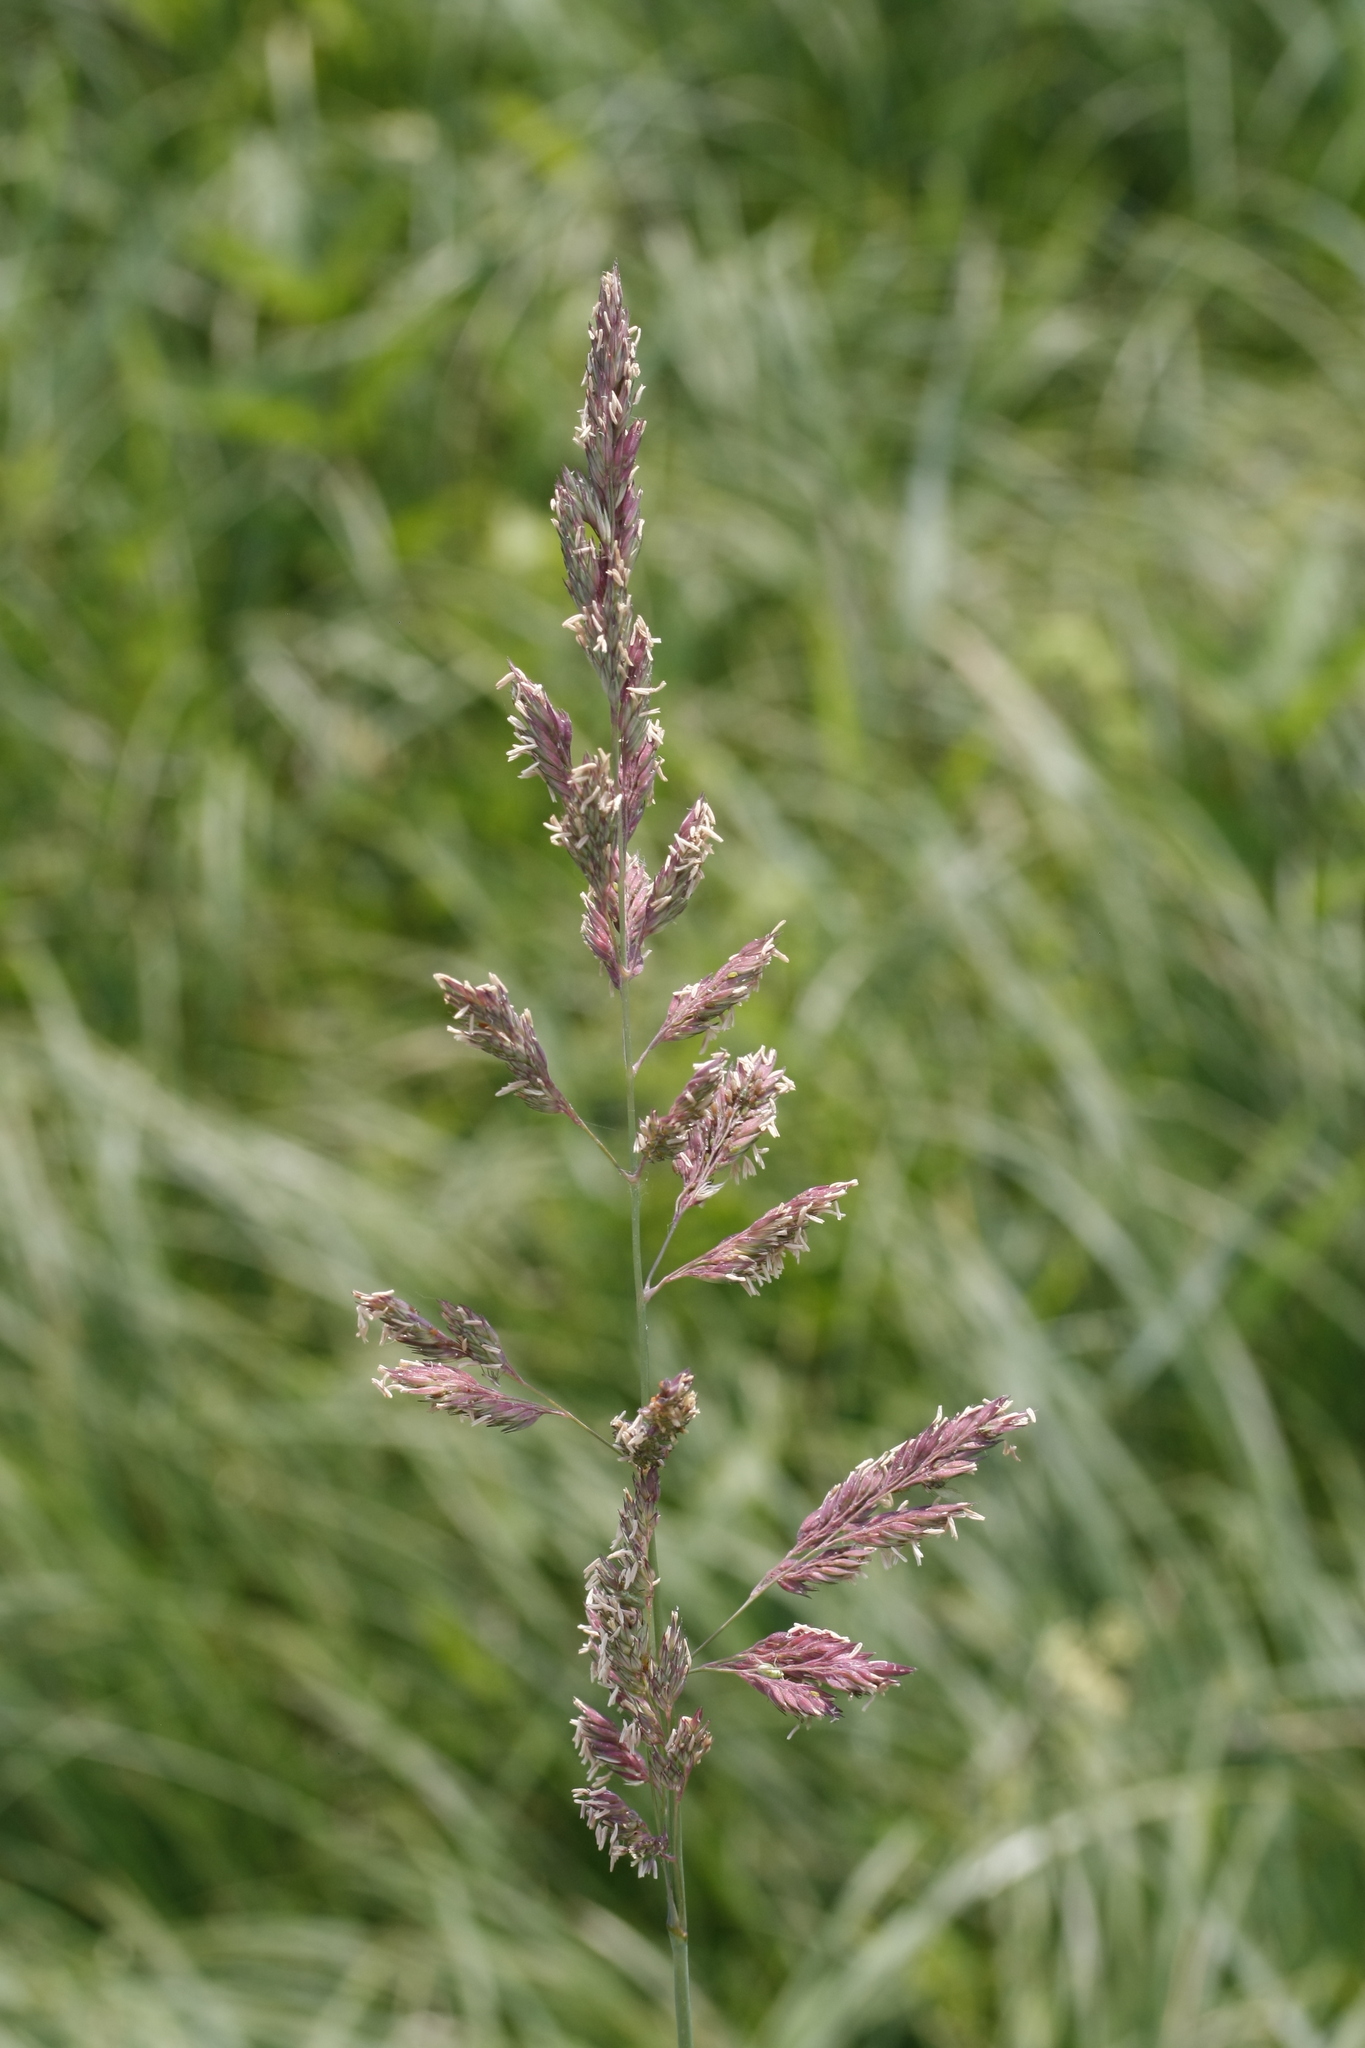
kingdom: Plantae
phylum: Tracheophyta
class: Liliopsida
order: Poales
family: Poaceae
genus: Phalaris
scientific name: Phalaris arundinacea
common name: Reed canary-grass
